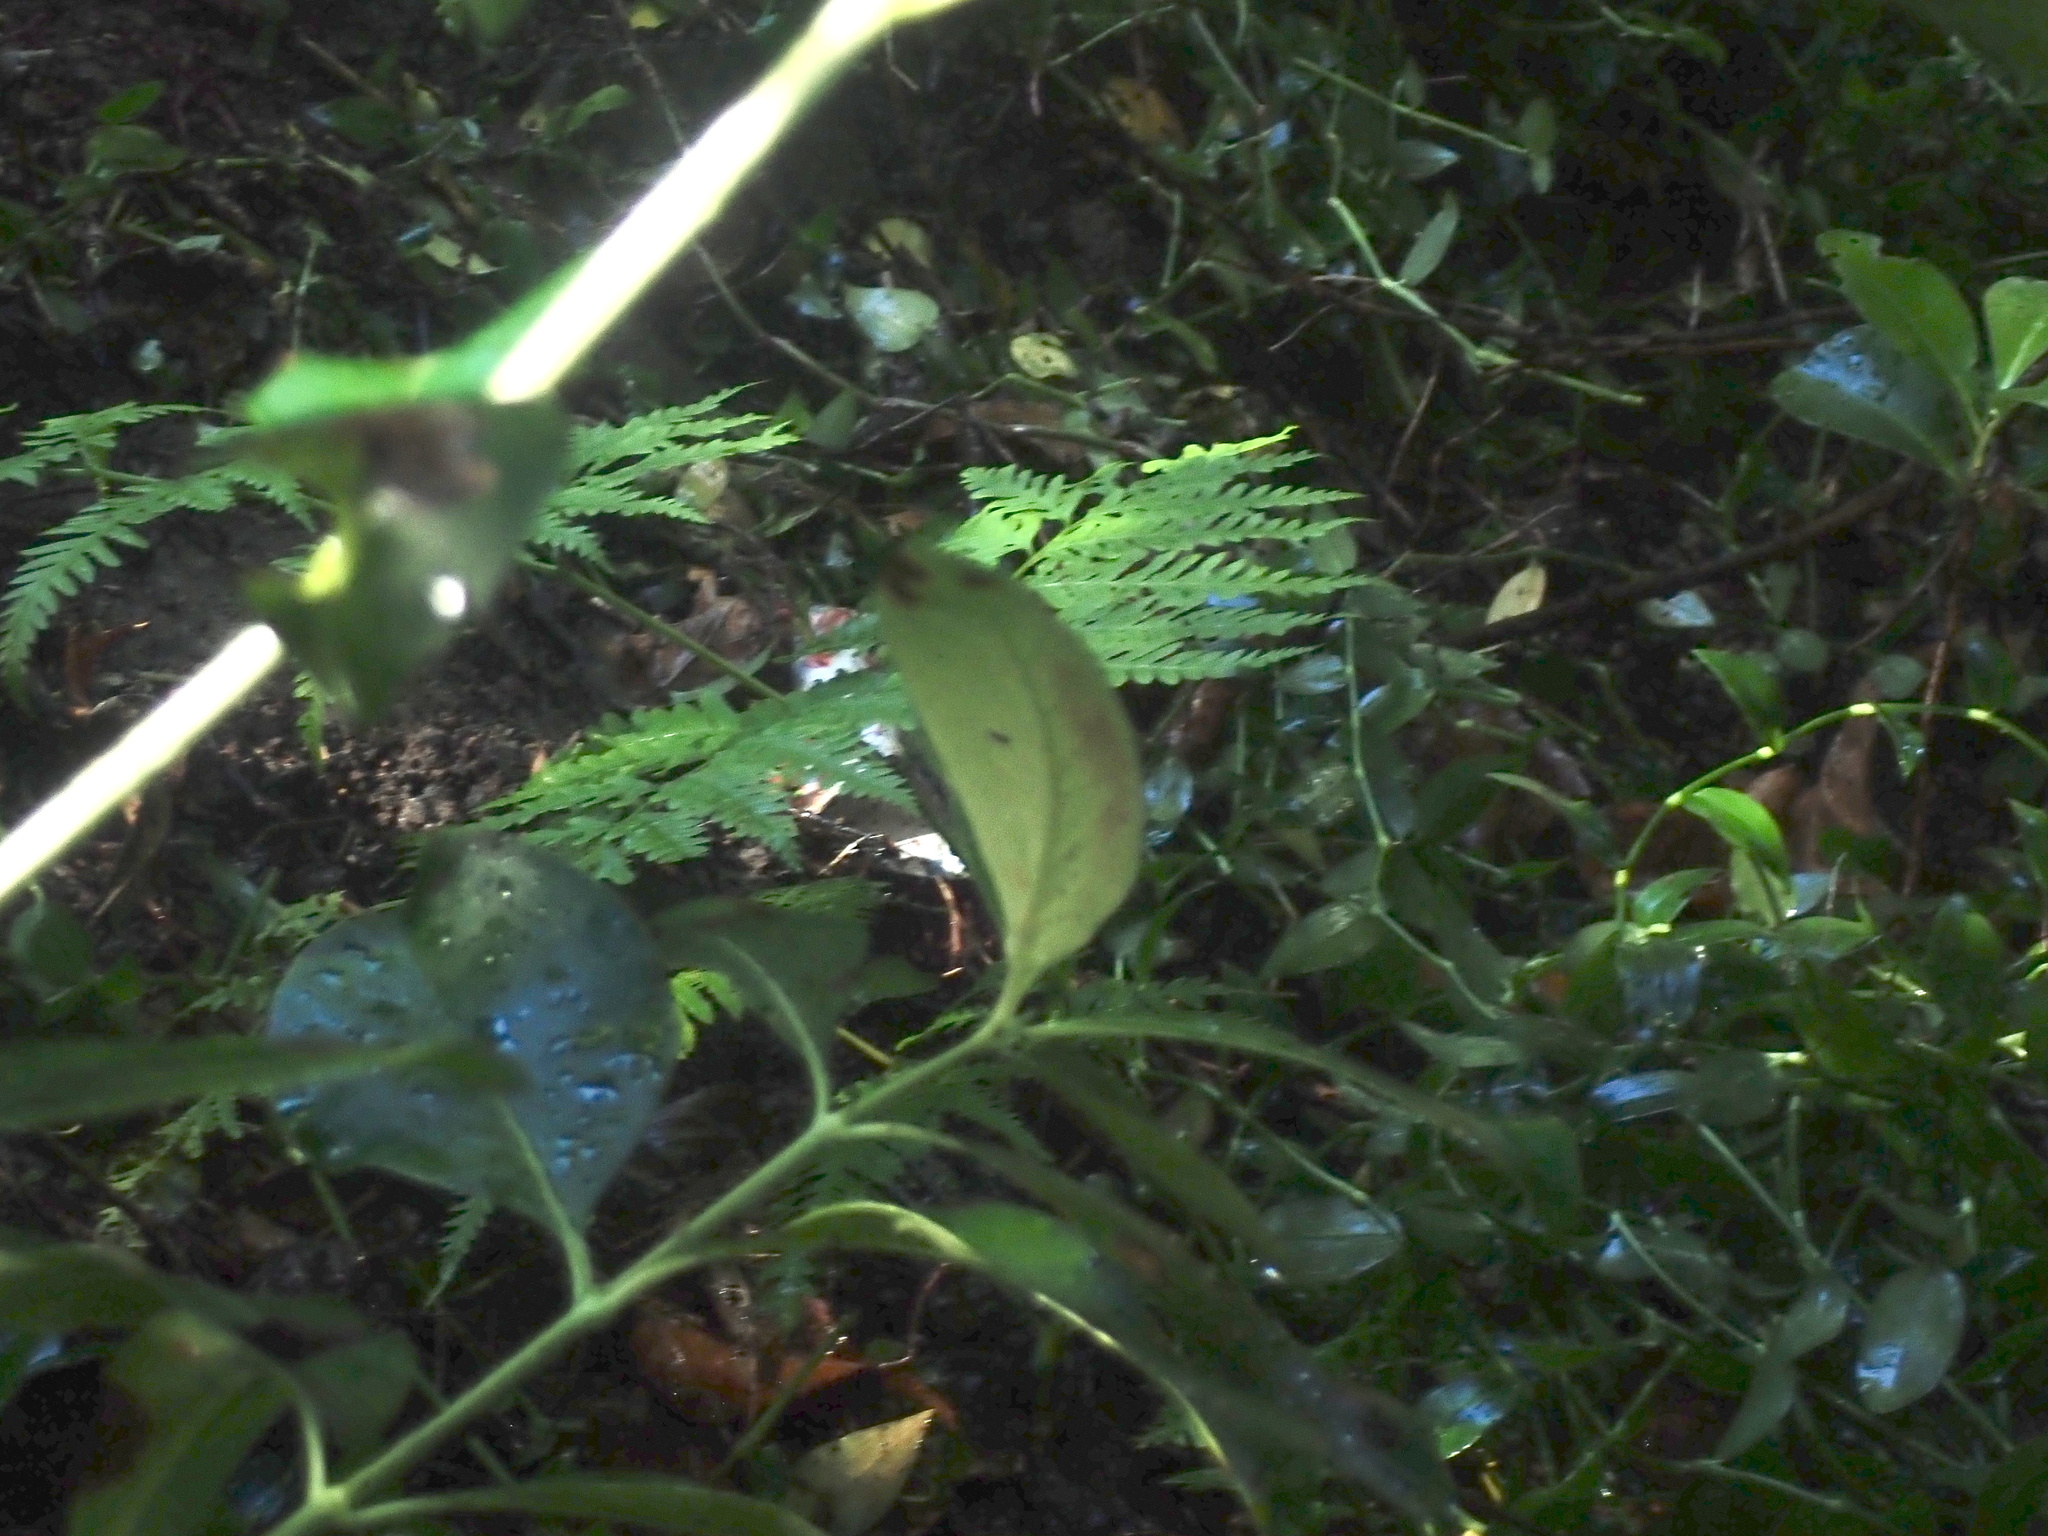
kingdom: Plantae
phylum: Tracheophyta
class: Polypodiopsida
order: Polypodiales
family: Pteridaceae
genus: Pteris
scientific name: Pteris tremula
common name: Australian brake
